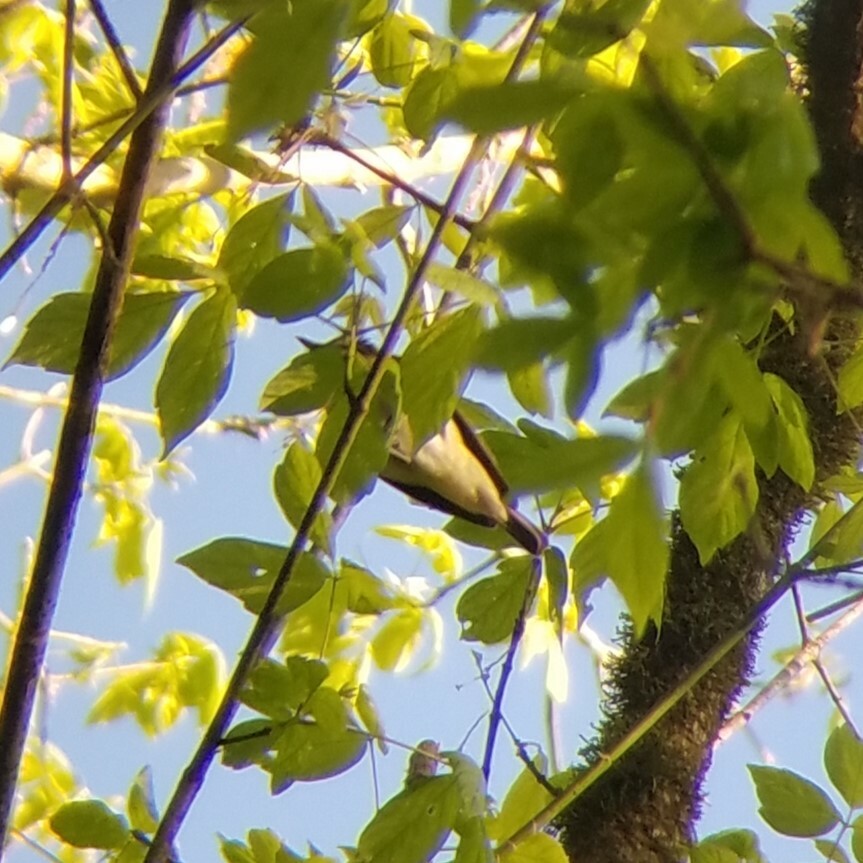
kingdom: Animalia
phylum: Chordata
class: Aves
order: Passeriformes
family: Vireonidae
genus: Vireo
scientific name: Vireo olivaceus
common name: Red-eyed vireo
